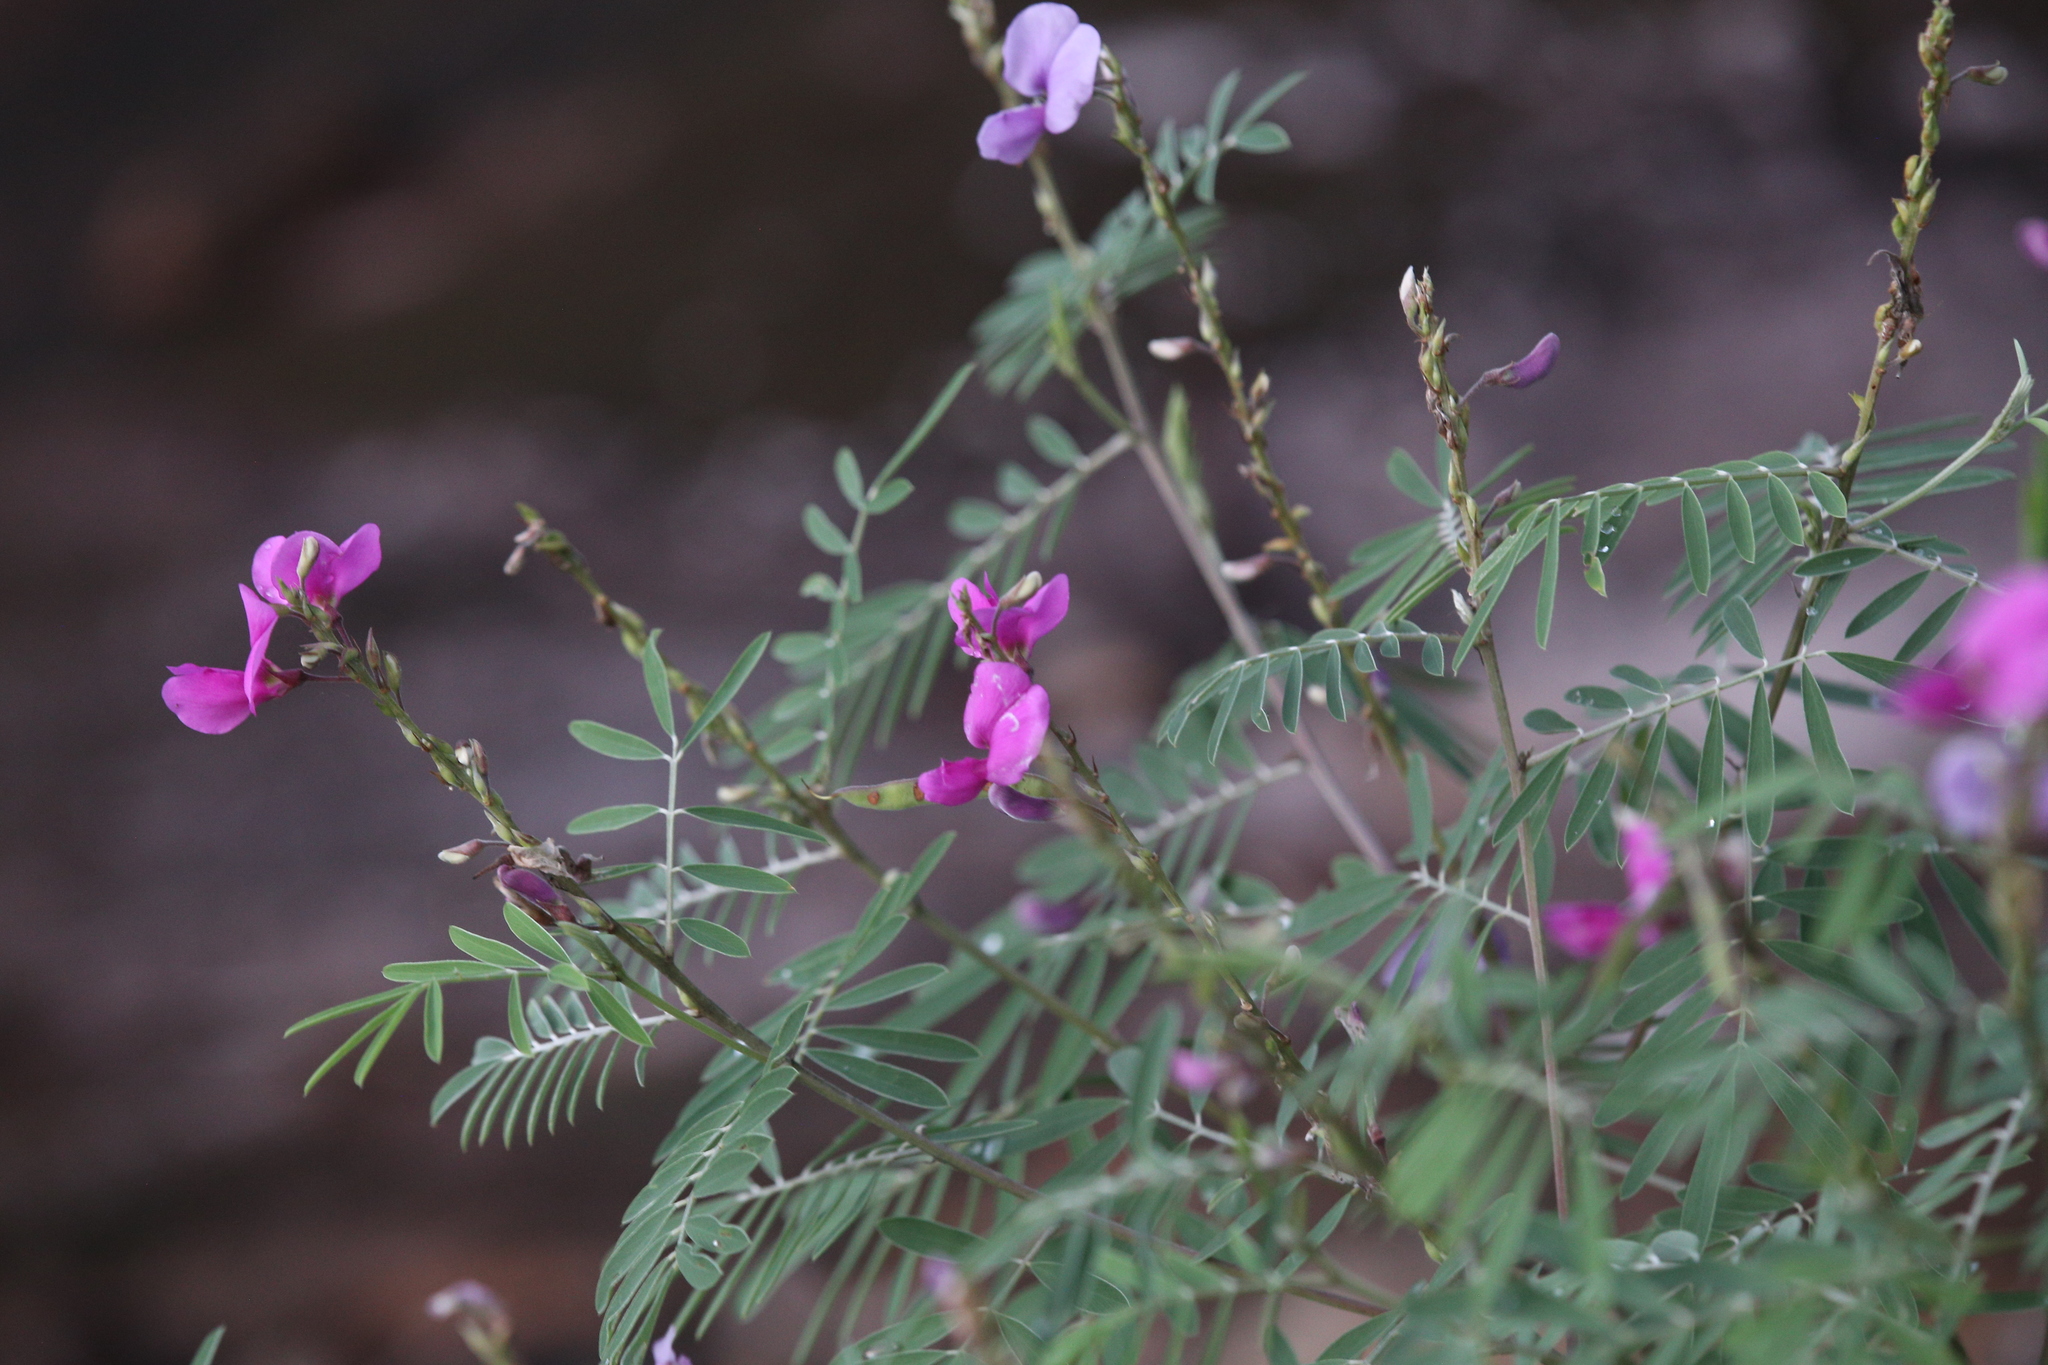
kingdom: Plantae
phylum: Tracheophyta
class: Magnoliopsida
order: Fabales
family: Fabaceae
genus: Tephrosia
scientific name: Tephrosia astragaloides
